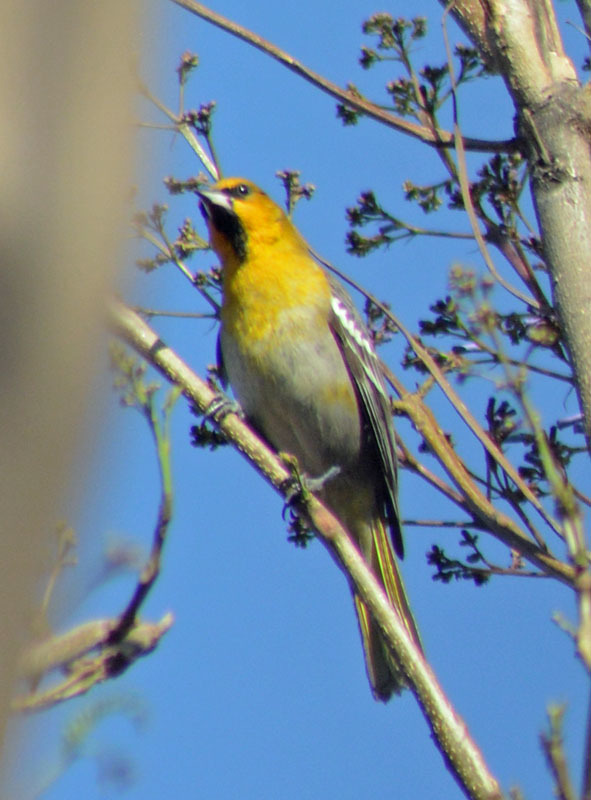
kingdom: Animalia
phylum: Chordata
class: Aves
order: Passeriformes
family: Icteridae
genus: Icterus
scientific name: Icterus bullockii
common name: Bullock's oriole
